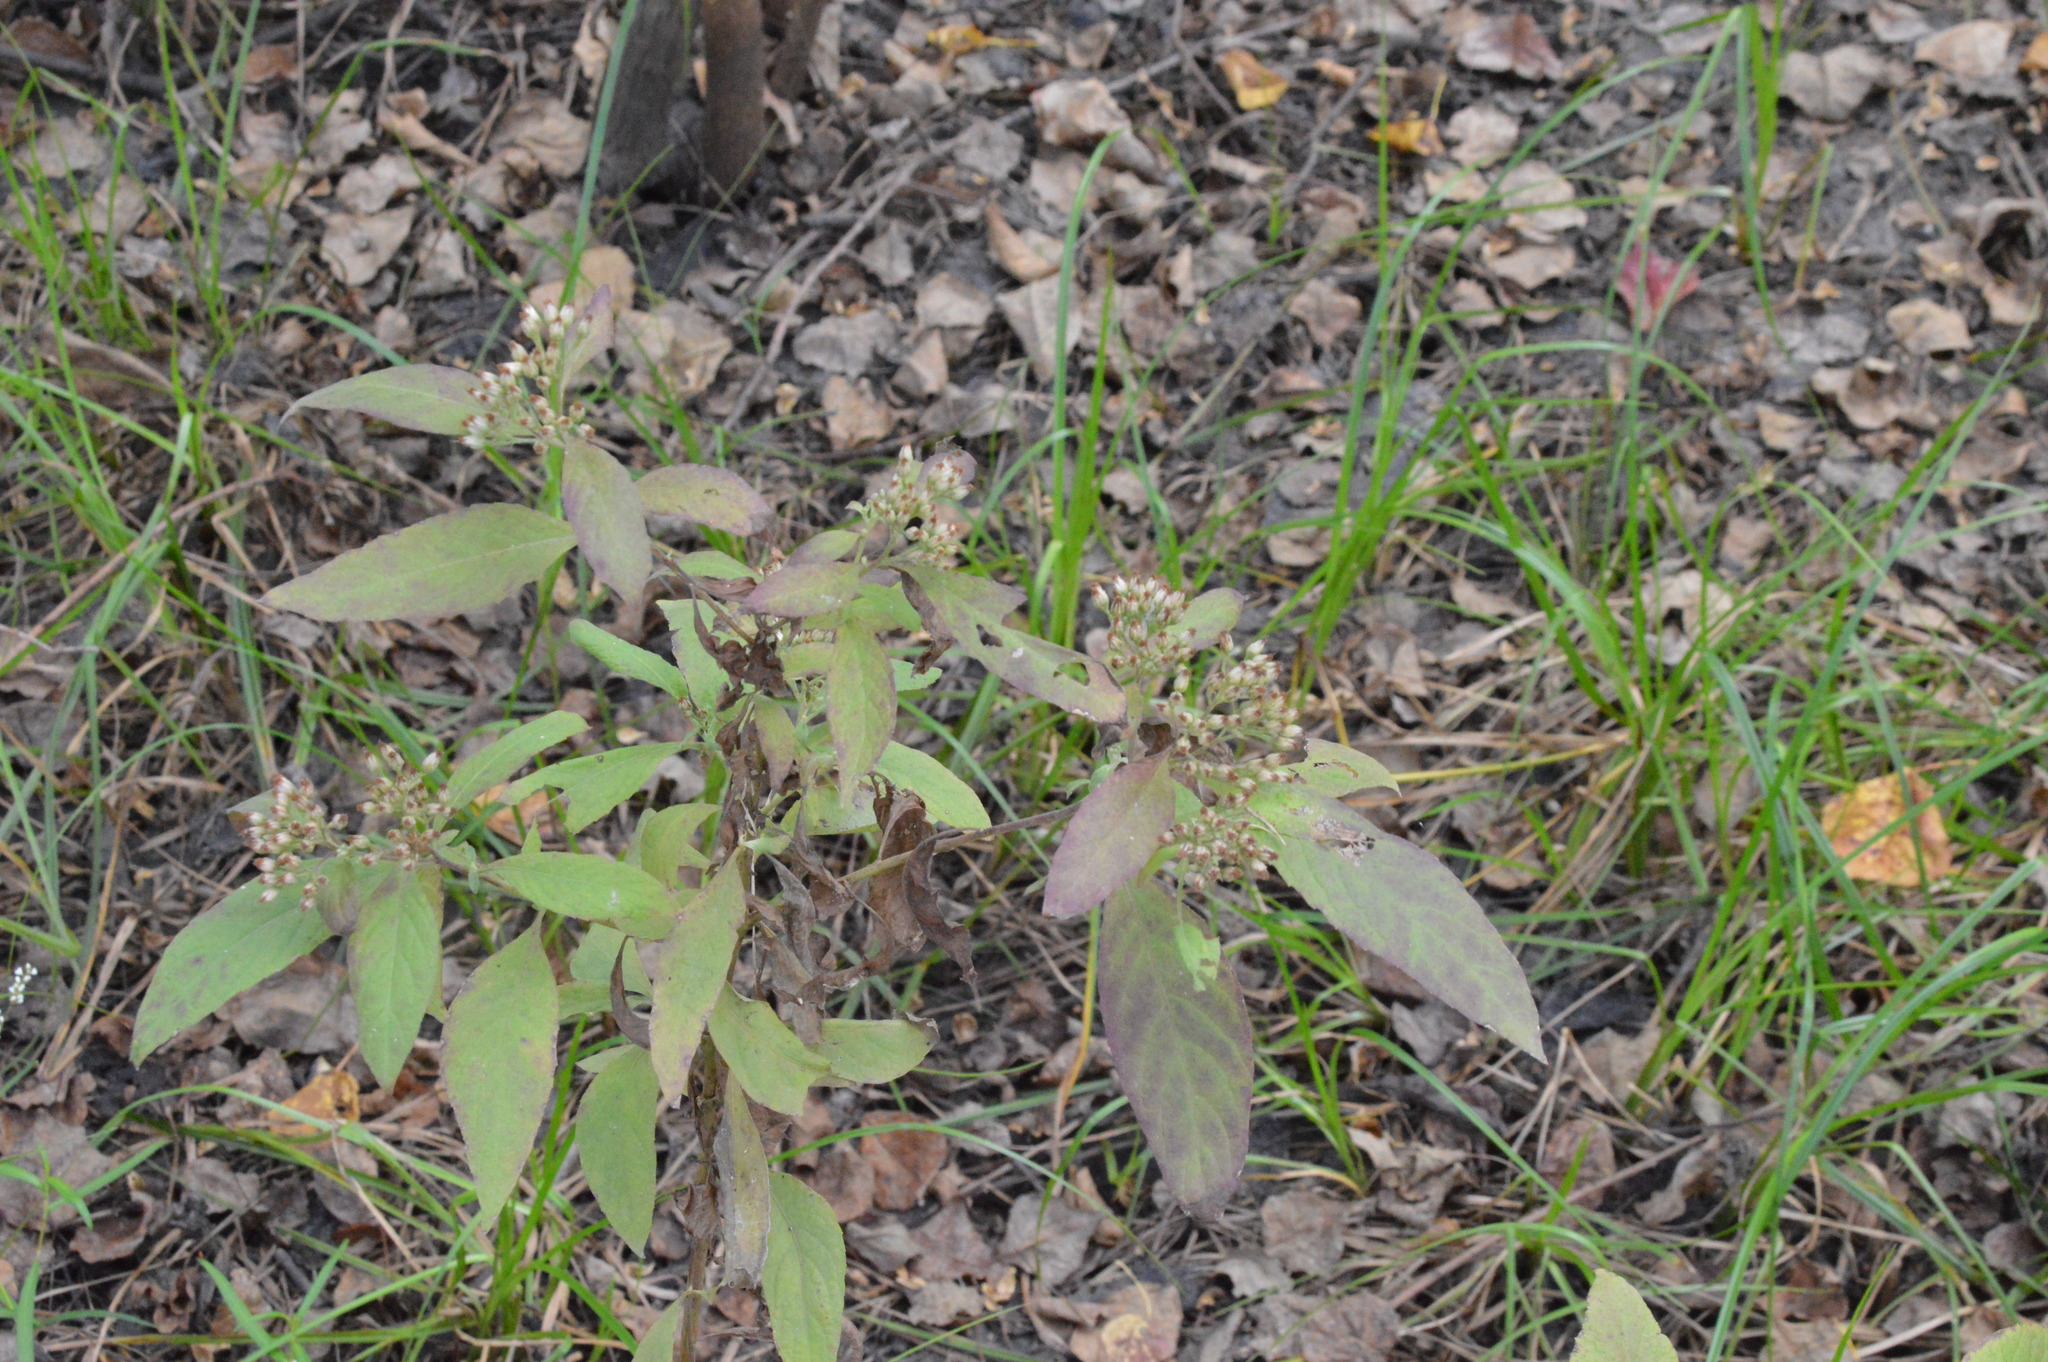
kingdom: Plantae
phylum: Tracheophyta
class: Magnoliopsida
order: Asterales
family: Asteraceae
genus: Pluchea
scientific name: Pluchea camphorata
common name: Camphor pluchea
